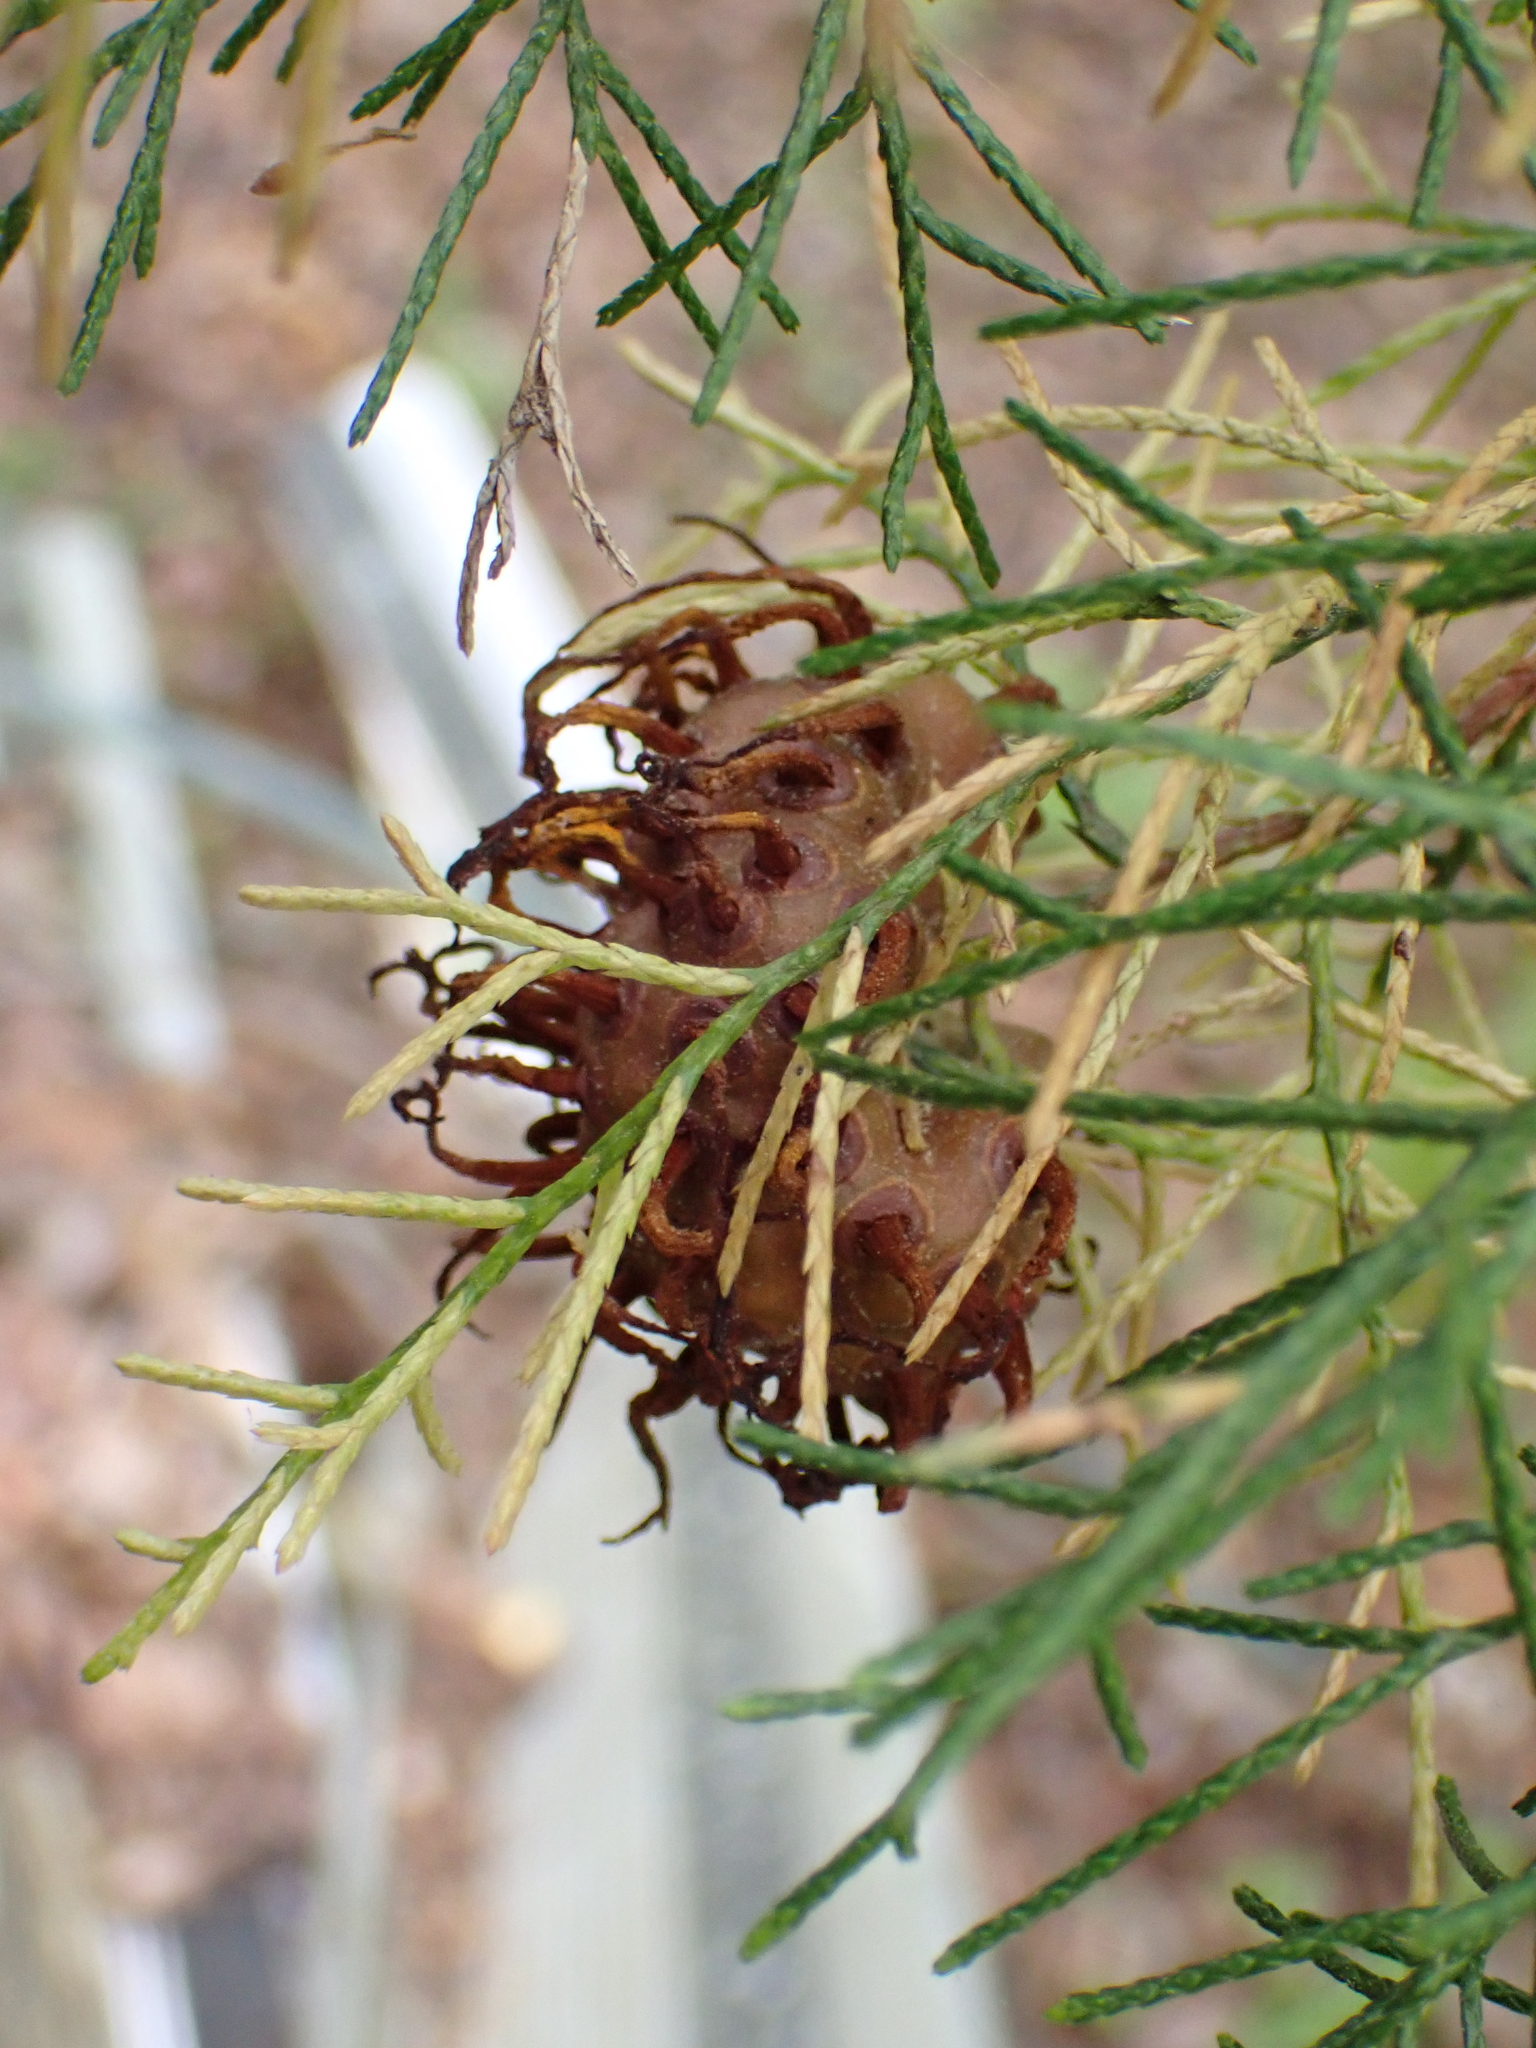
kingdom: Fungi
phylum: Basidiomycota
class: Pucciniomycetes
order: Pucciniales
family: Gymnosporangiaceae
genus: Gymnosporangium
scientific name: Gymnosporangium juniperi-virginianae
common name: Juniper-apple rust
